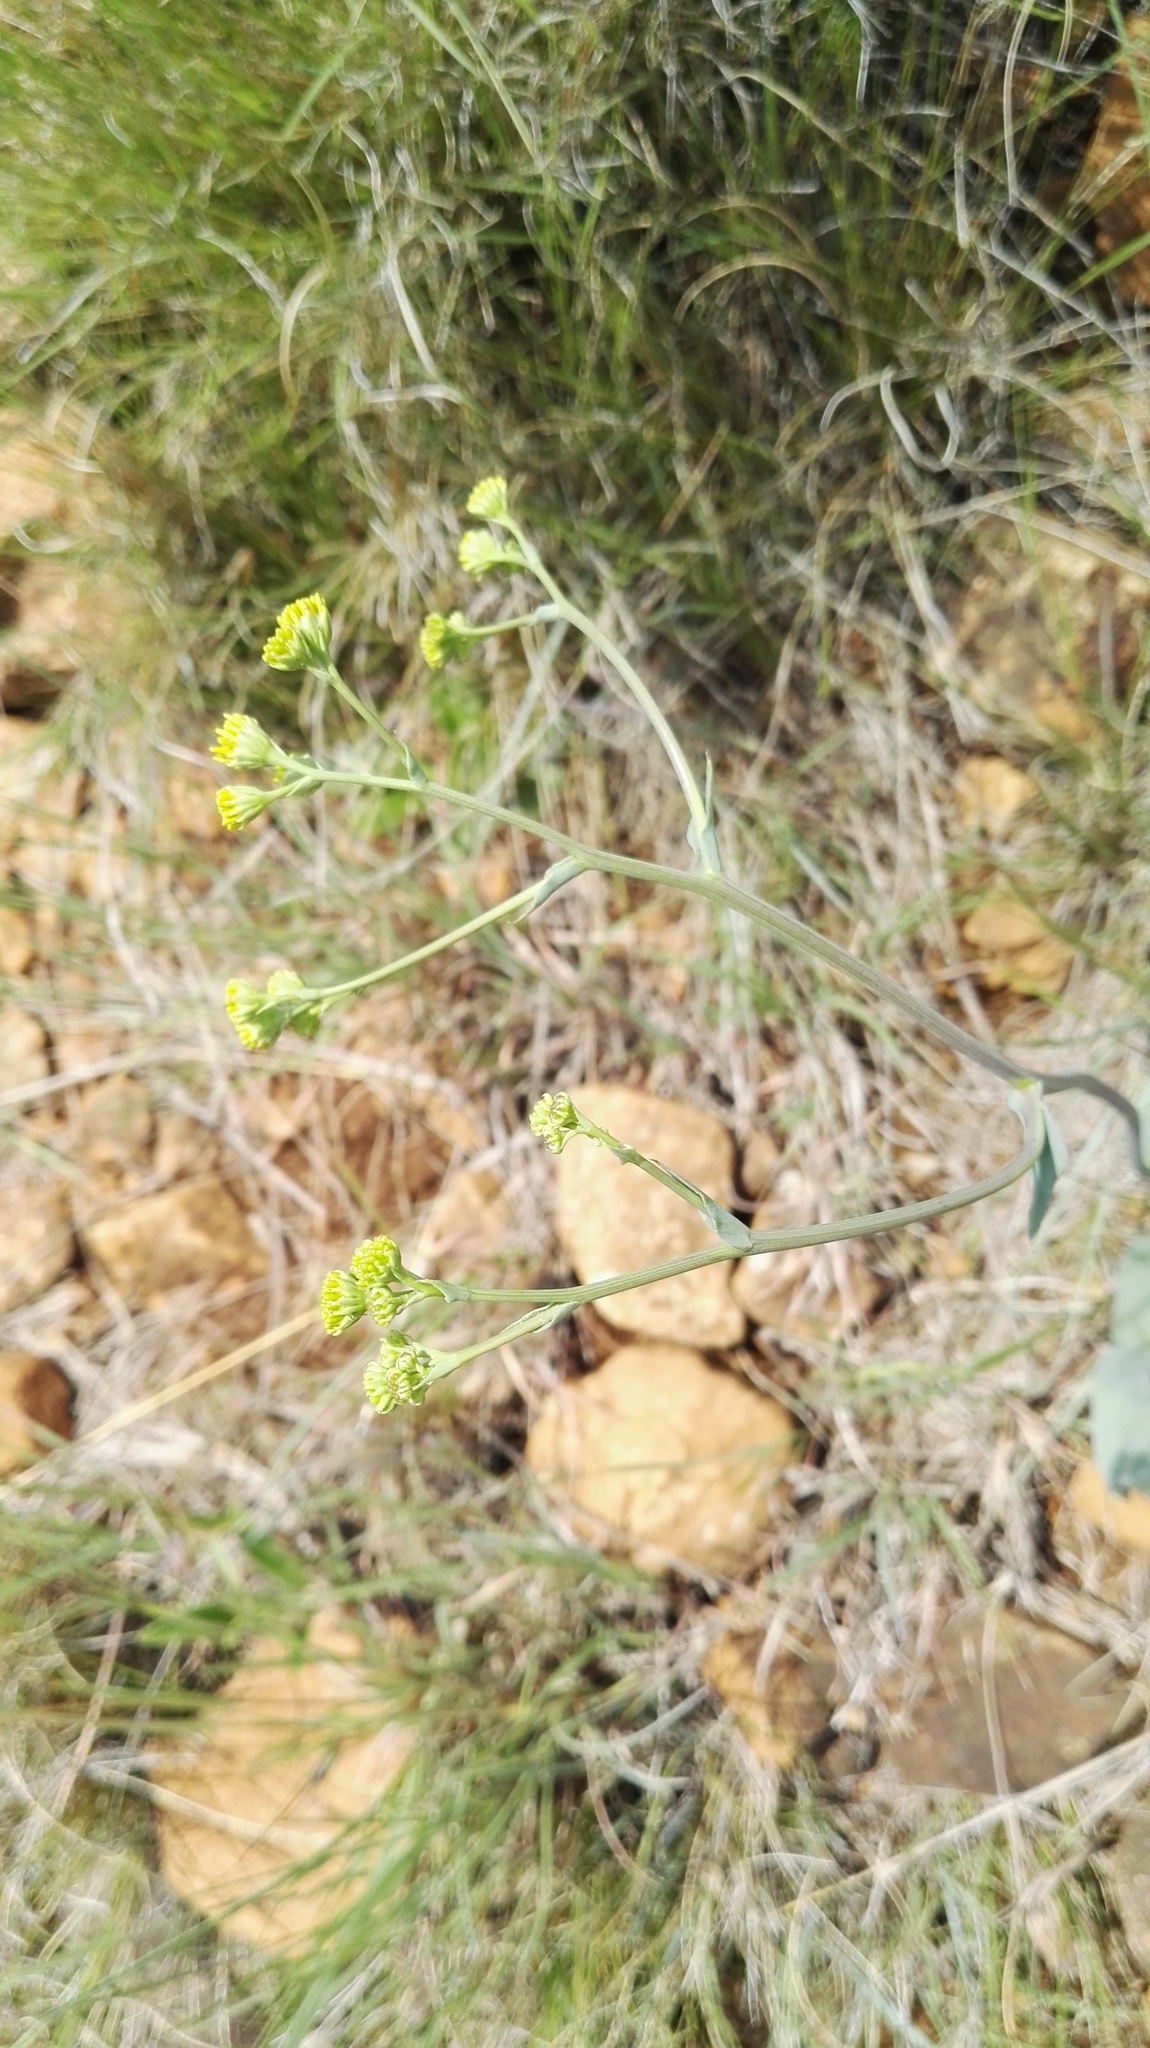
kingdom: Plantae
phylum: Tracheophyta
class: Magnoliopsida
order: Asterales
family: Asteraceae
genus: Senecio
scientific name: Senecio venosus
